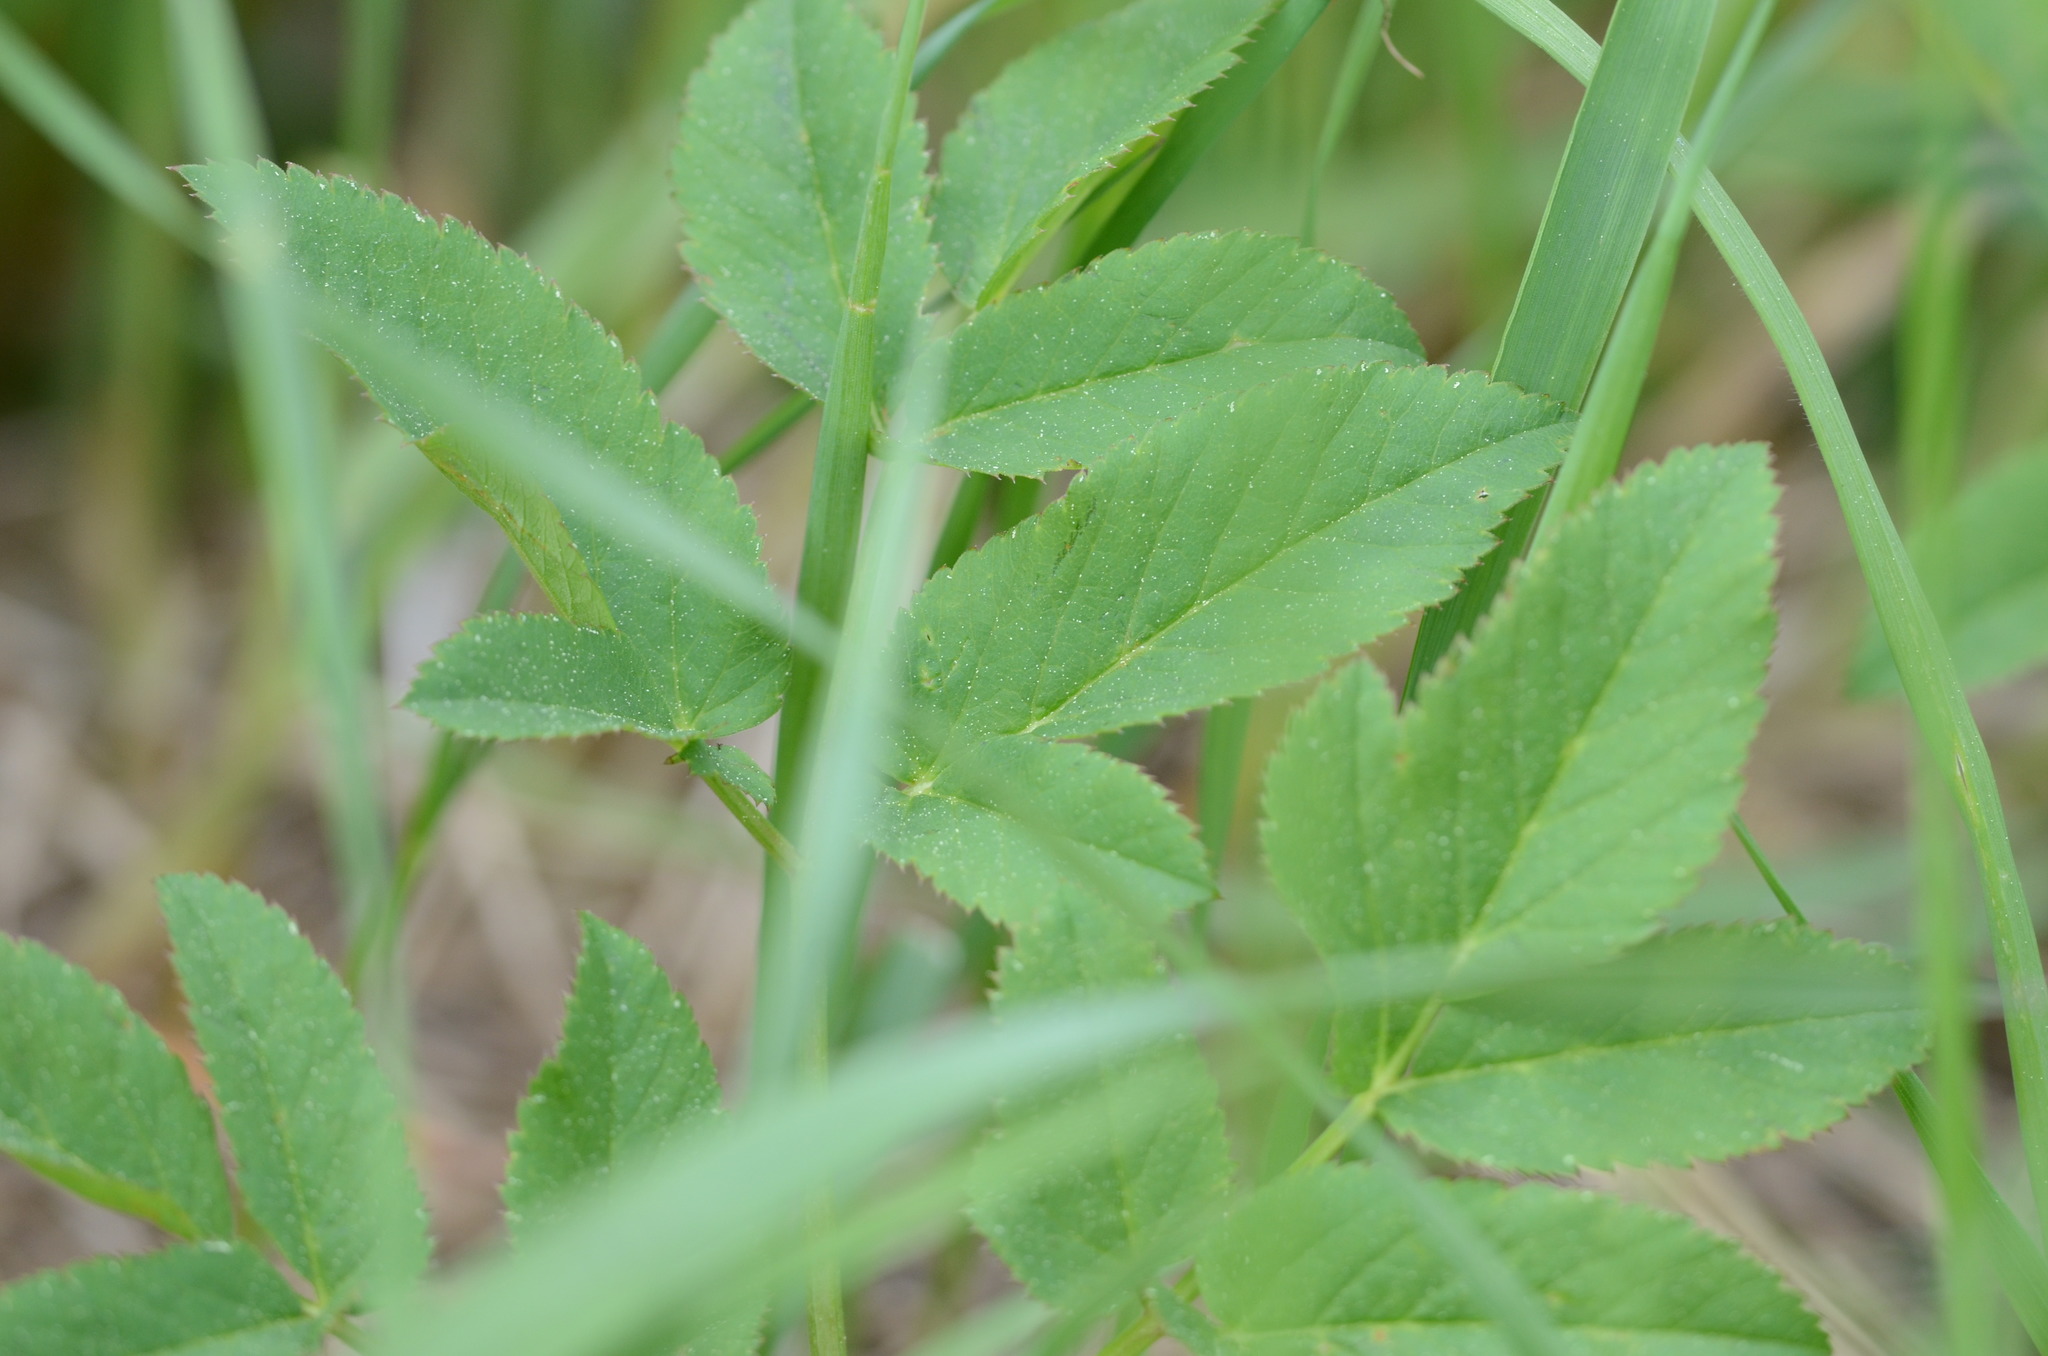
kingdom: Plantae
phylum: Tracheophyta
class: Magnoliopsida
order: Apiales
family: Apiaceae
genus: Aegopodium
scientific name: Aegopodium podagraria
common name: Ground-elder
